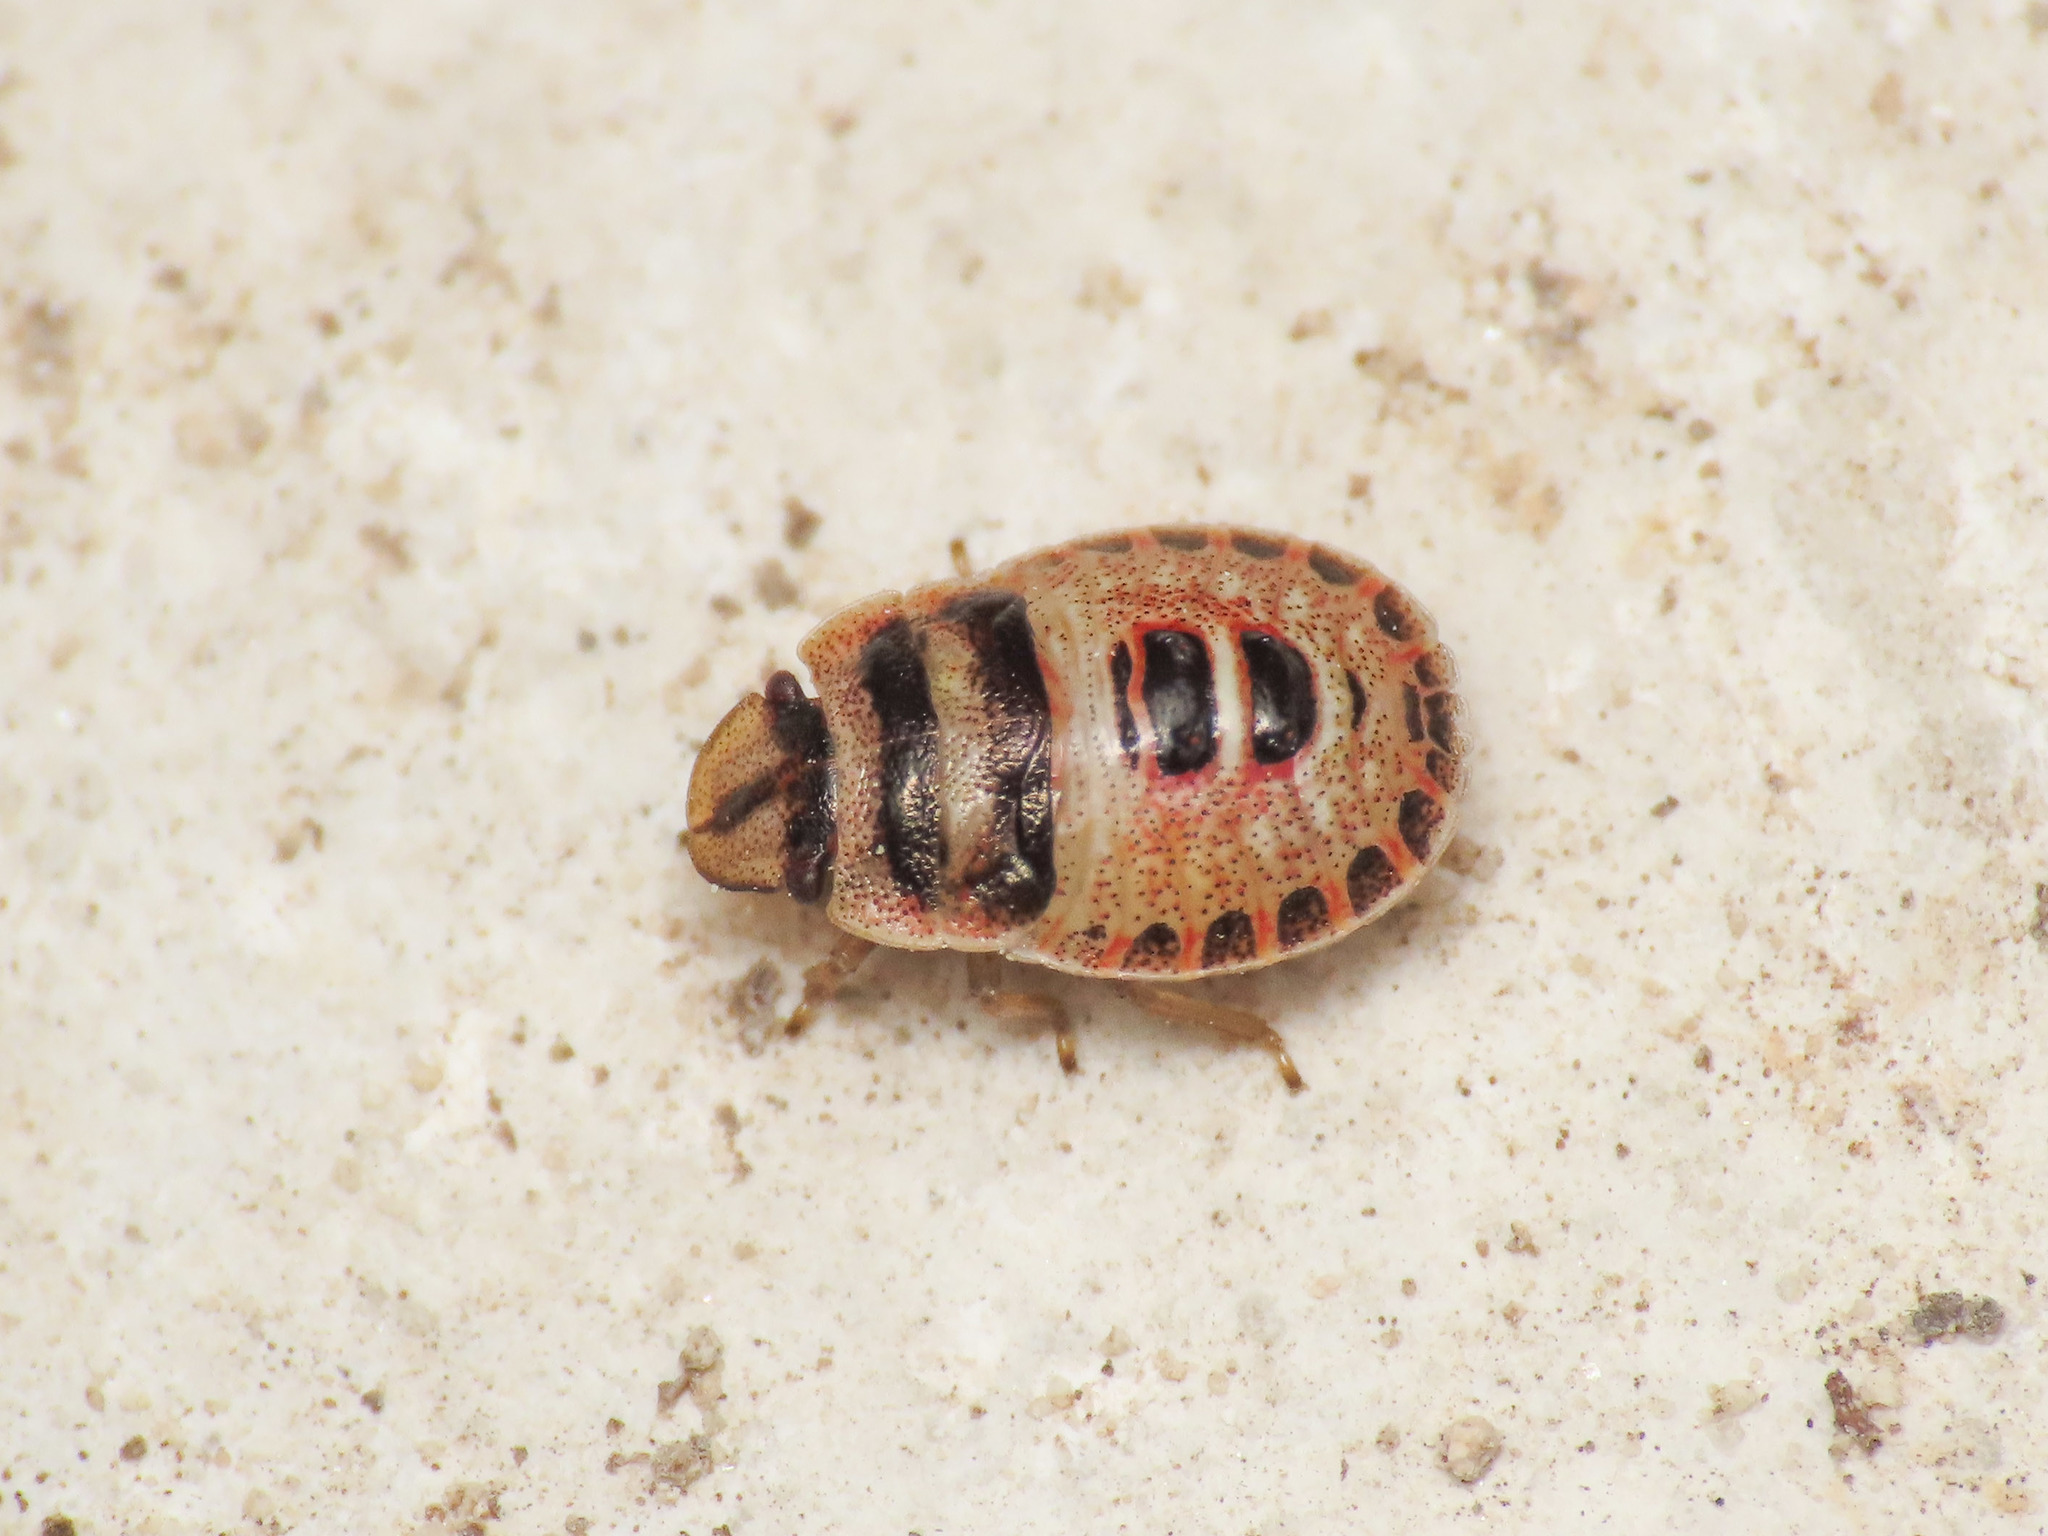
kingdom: Animalia
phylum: Arthropoda
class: Insecta
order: Hemiptera
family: Pentatomidae
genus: Sciocoris
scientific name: Sciocoris macrocephalus
